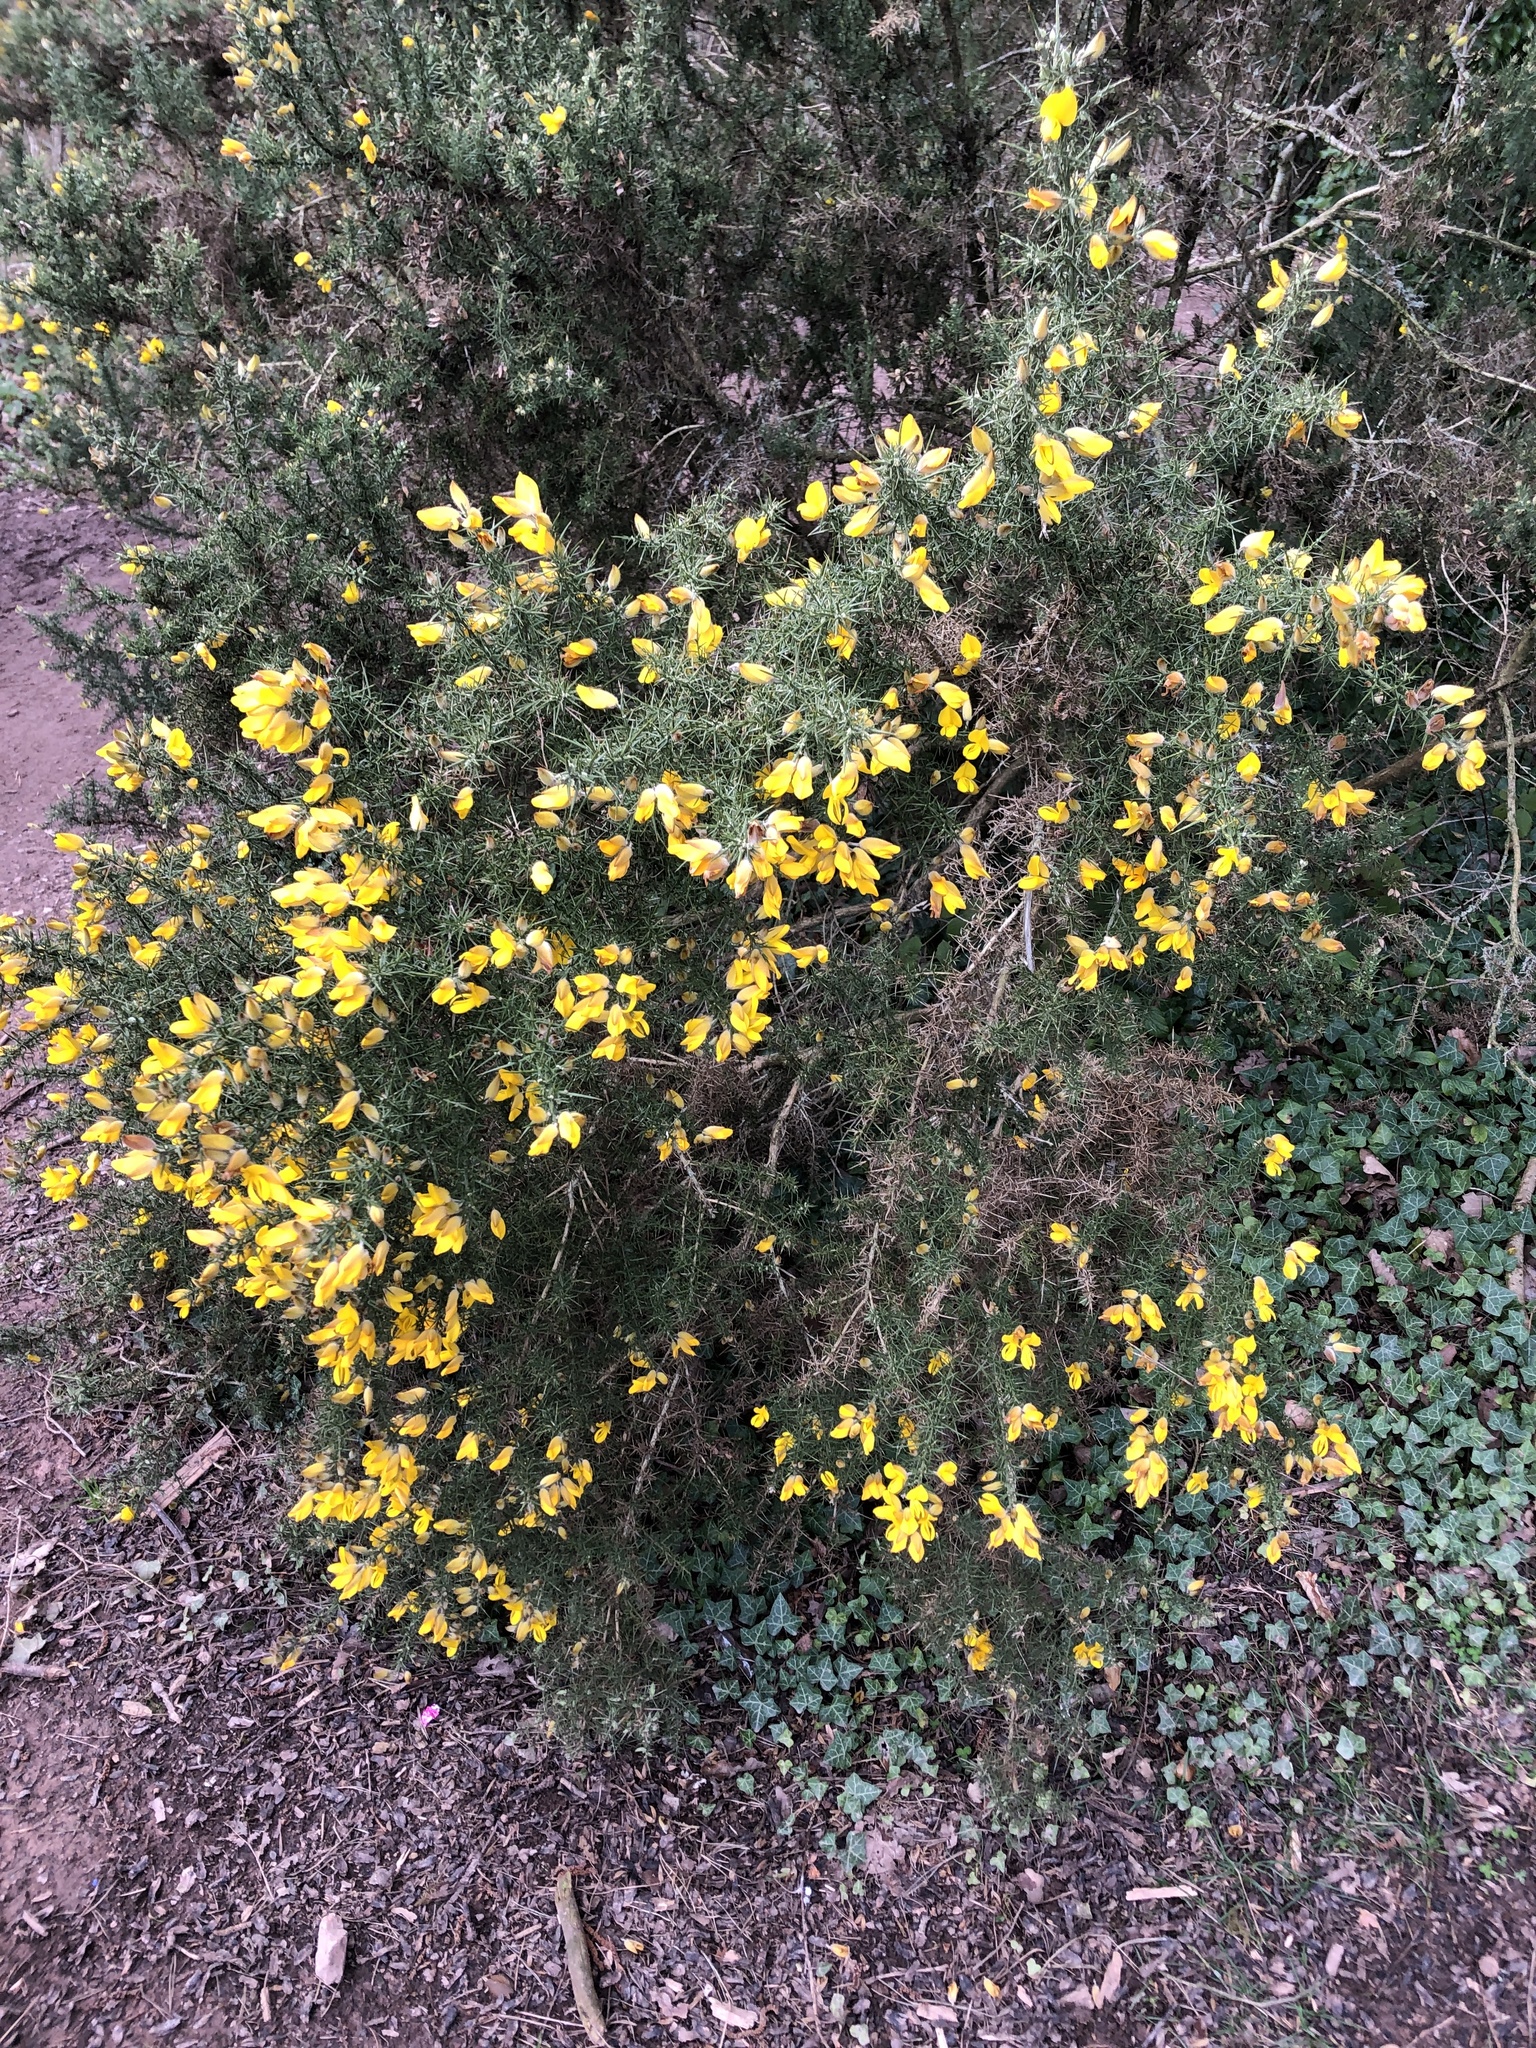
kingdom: Plantae
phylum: Tracheophyta
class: Magnoliopsida
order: Fabales
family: Fabaceae
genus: Ulex
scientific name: Ulex europaeus
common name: Common gorse
